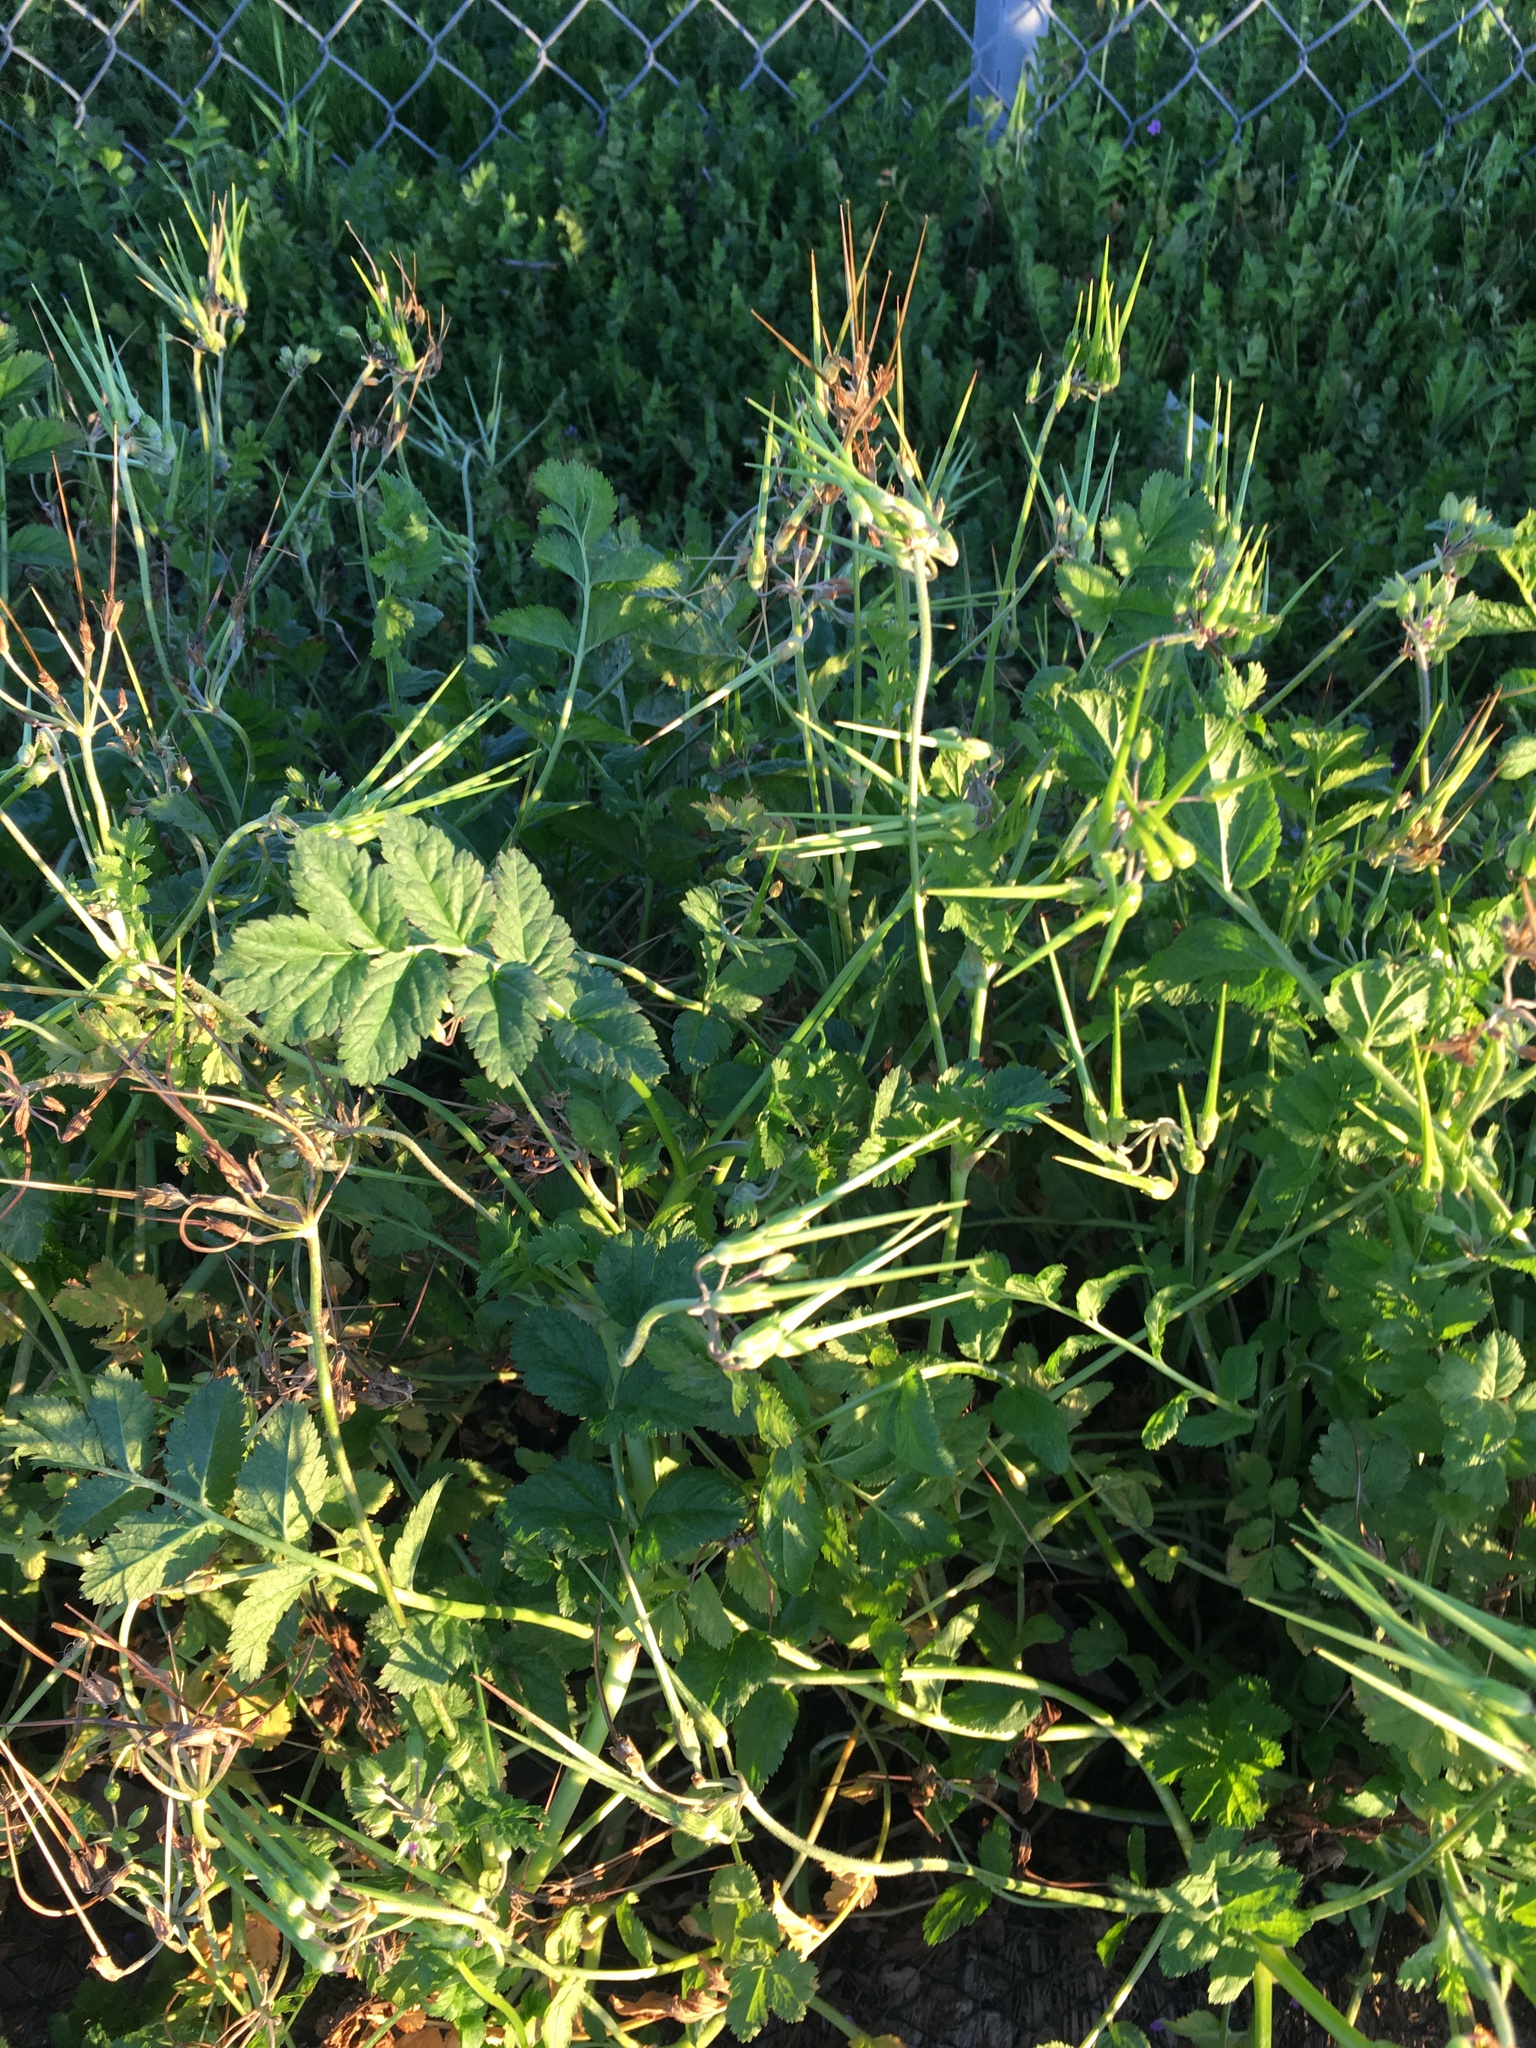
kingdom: Plantae
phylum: Tracheophyta
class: Magnoliopsida
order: Geraniales
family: Geraniaceae
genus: Erodium
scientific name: Erodium moschatum
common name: Musk stork's-bill
